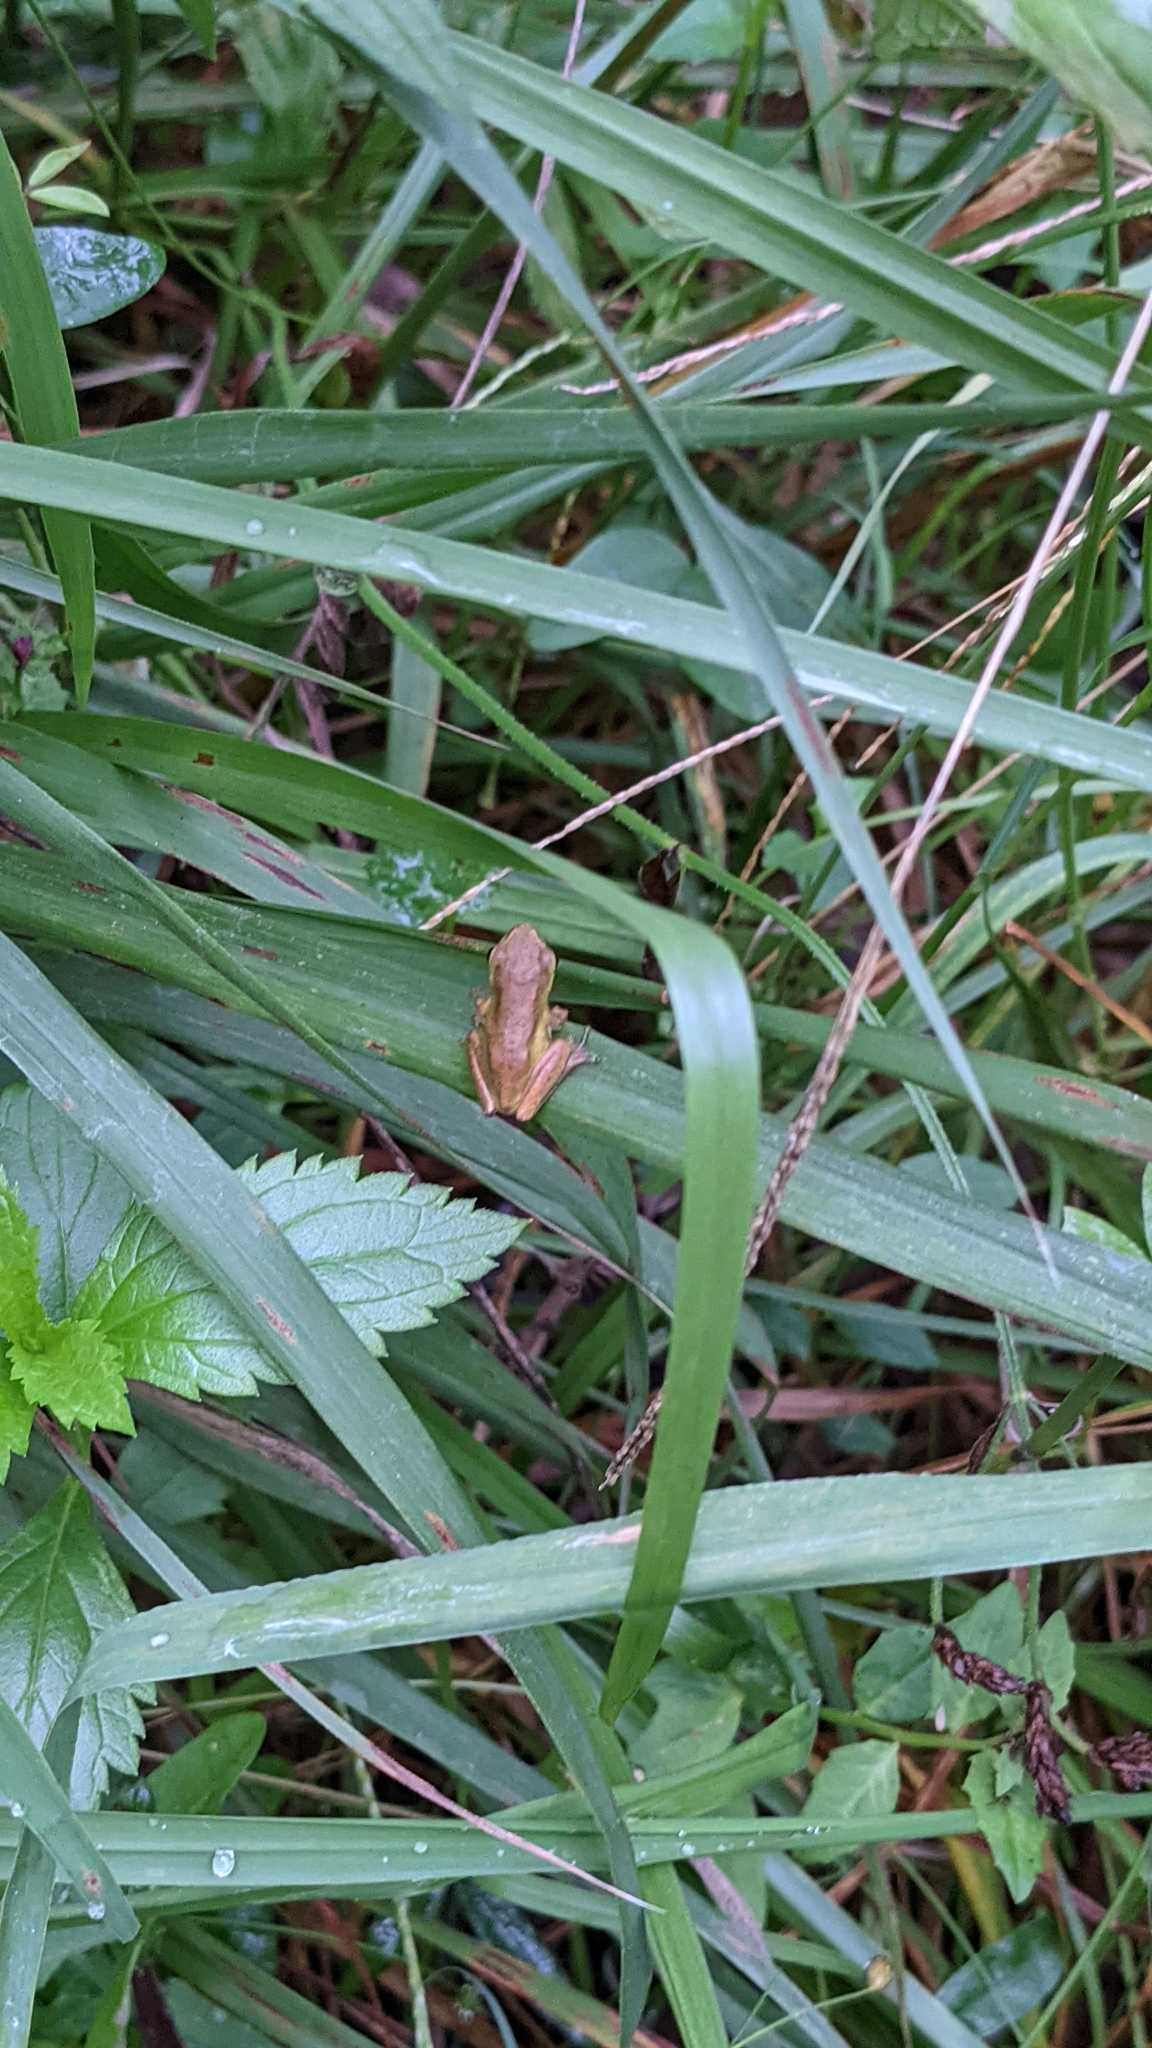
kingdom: Animalia
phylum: Chordata
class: Amphibia
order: Anura
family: Pelodryadidae
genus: Litoria
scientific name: Litoria fallax
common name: Eastern dwarf treefrog
